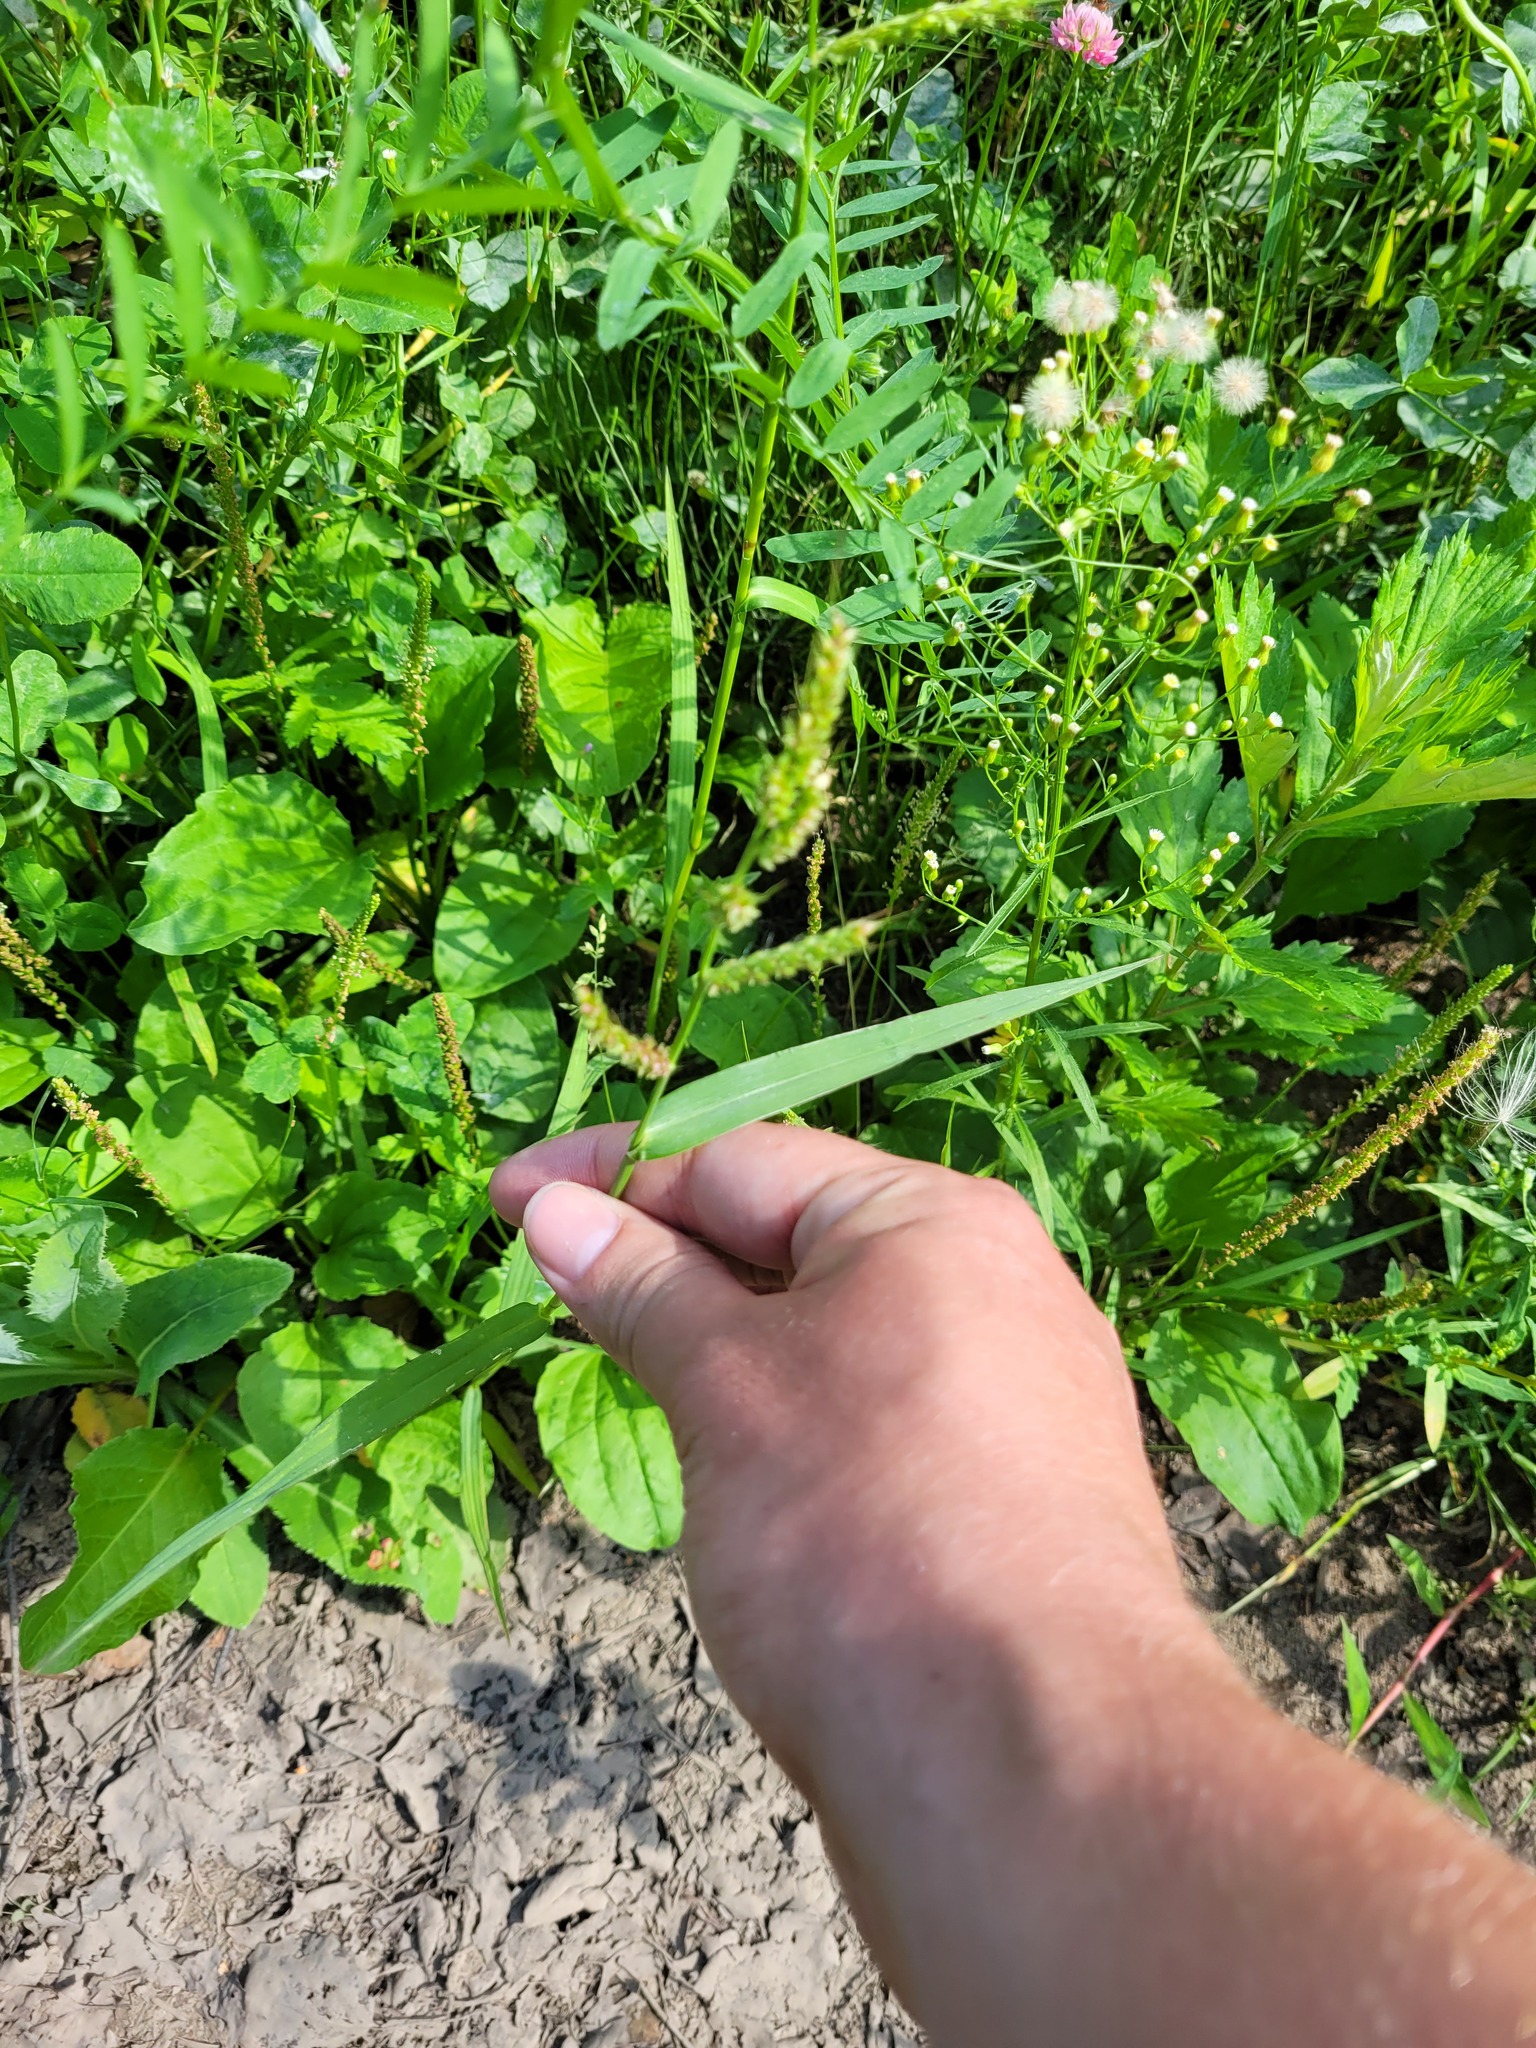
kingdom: Plantae
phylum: Tracheophyta
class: Liliopsida
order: Poales
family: Poaceae
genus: Echinochloa
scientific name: Echinochloa crus-galli
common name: Cockspur
